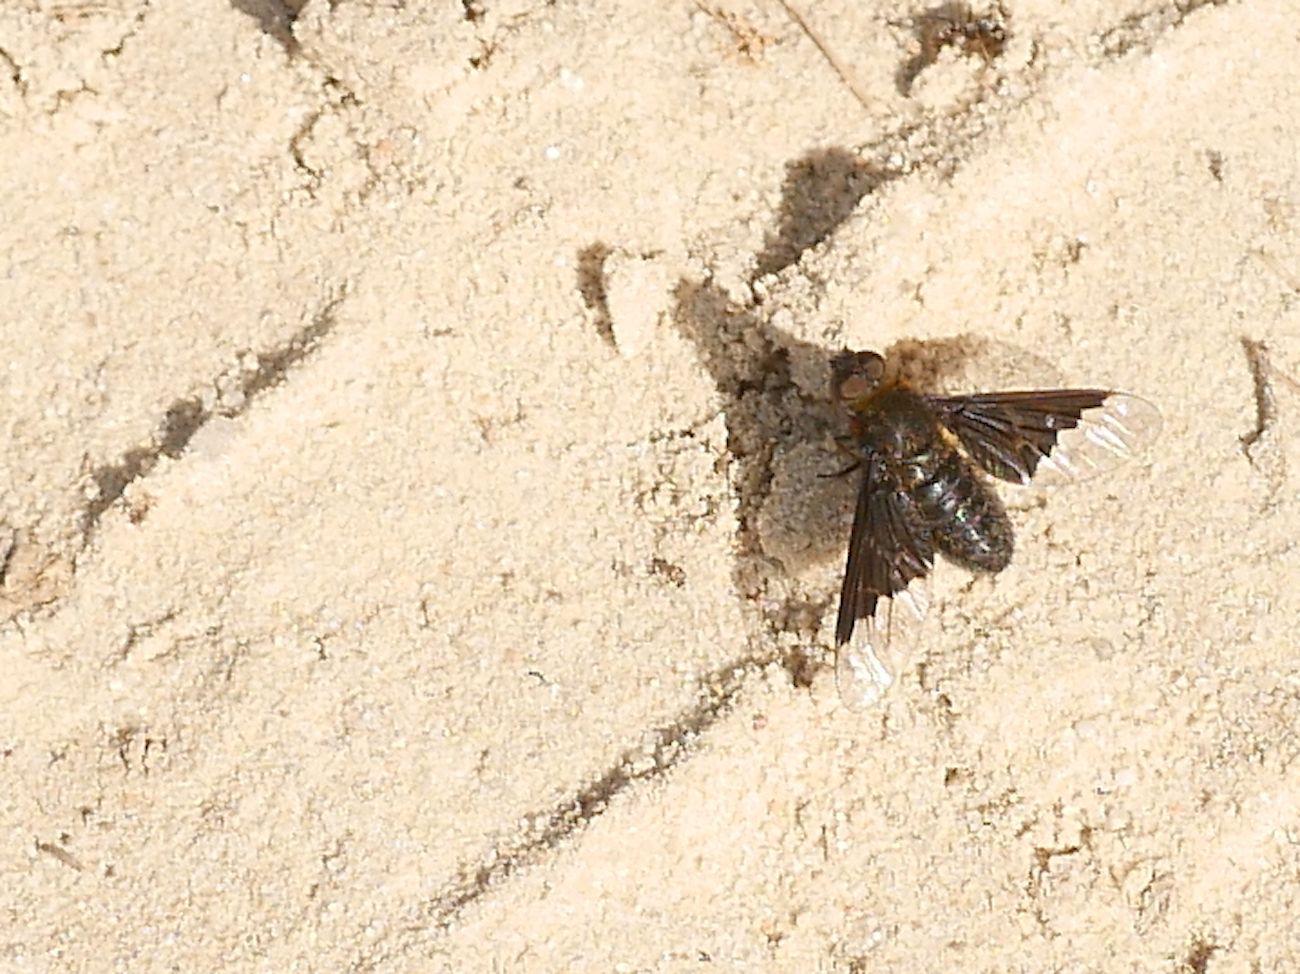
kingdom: Animalia
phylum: Arthropoda
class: Insecta
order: Diptera
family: Bombyliidae
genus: Hemipenthes
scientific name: Hemipenthes morio
